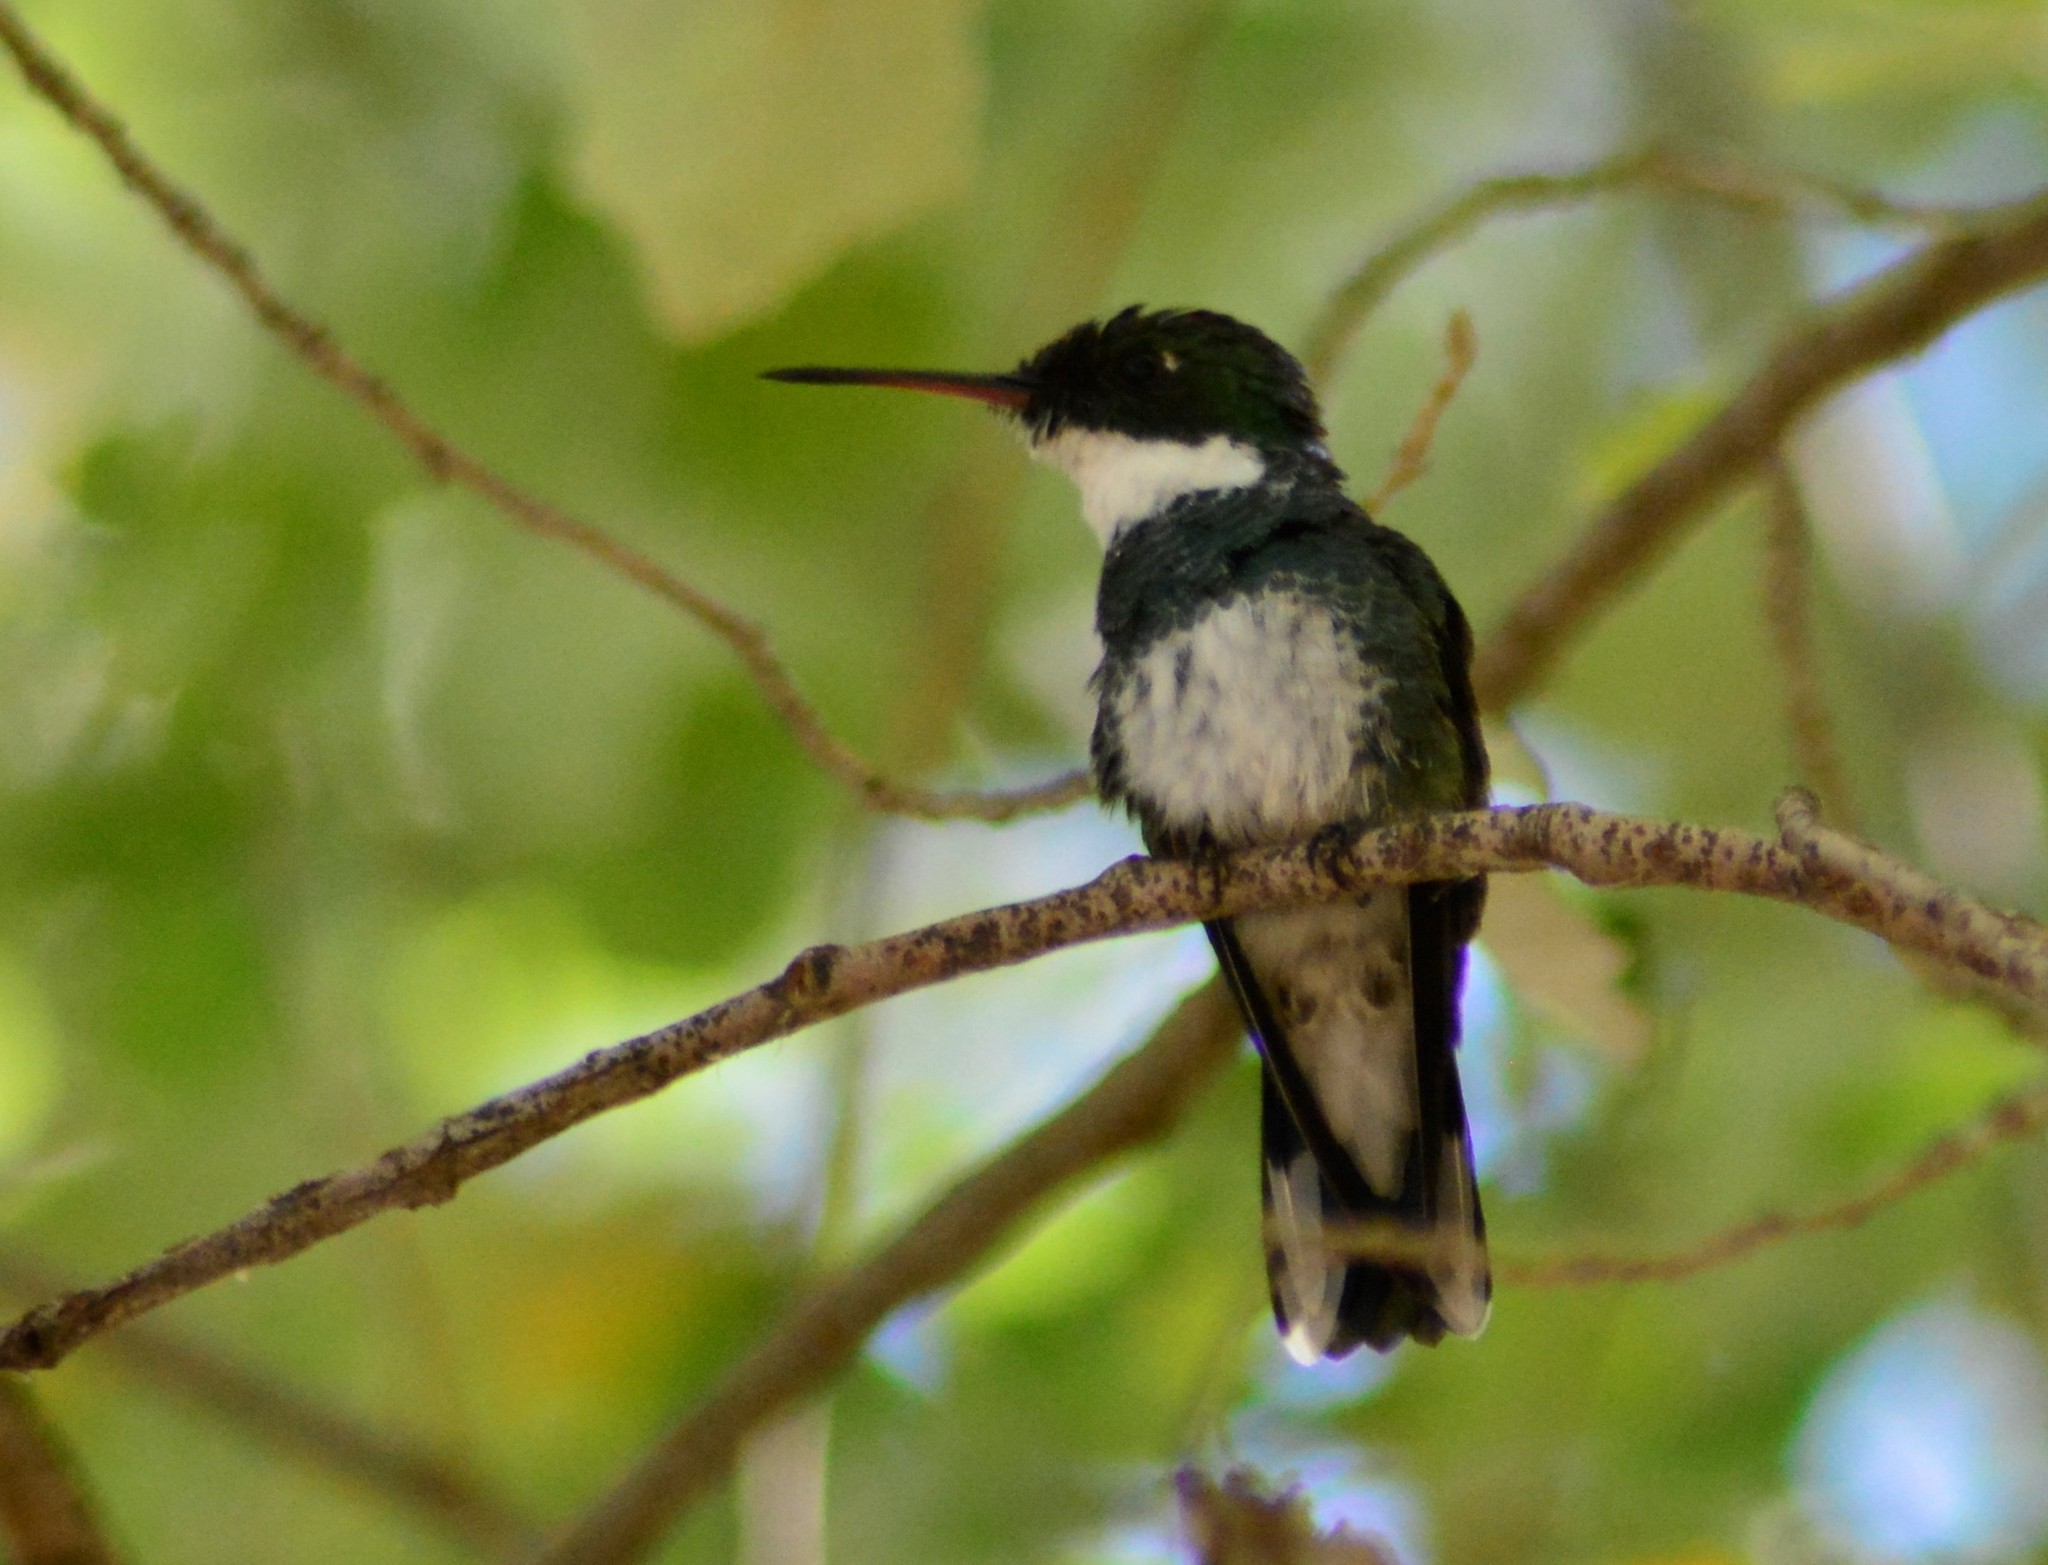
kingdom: Animalia
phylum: Chordata
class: Aves
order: Apodiformes
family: Trochilidae
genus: Leucochloris
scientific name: Leucochloris albicollis
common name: White-throated hummingbird
